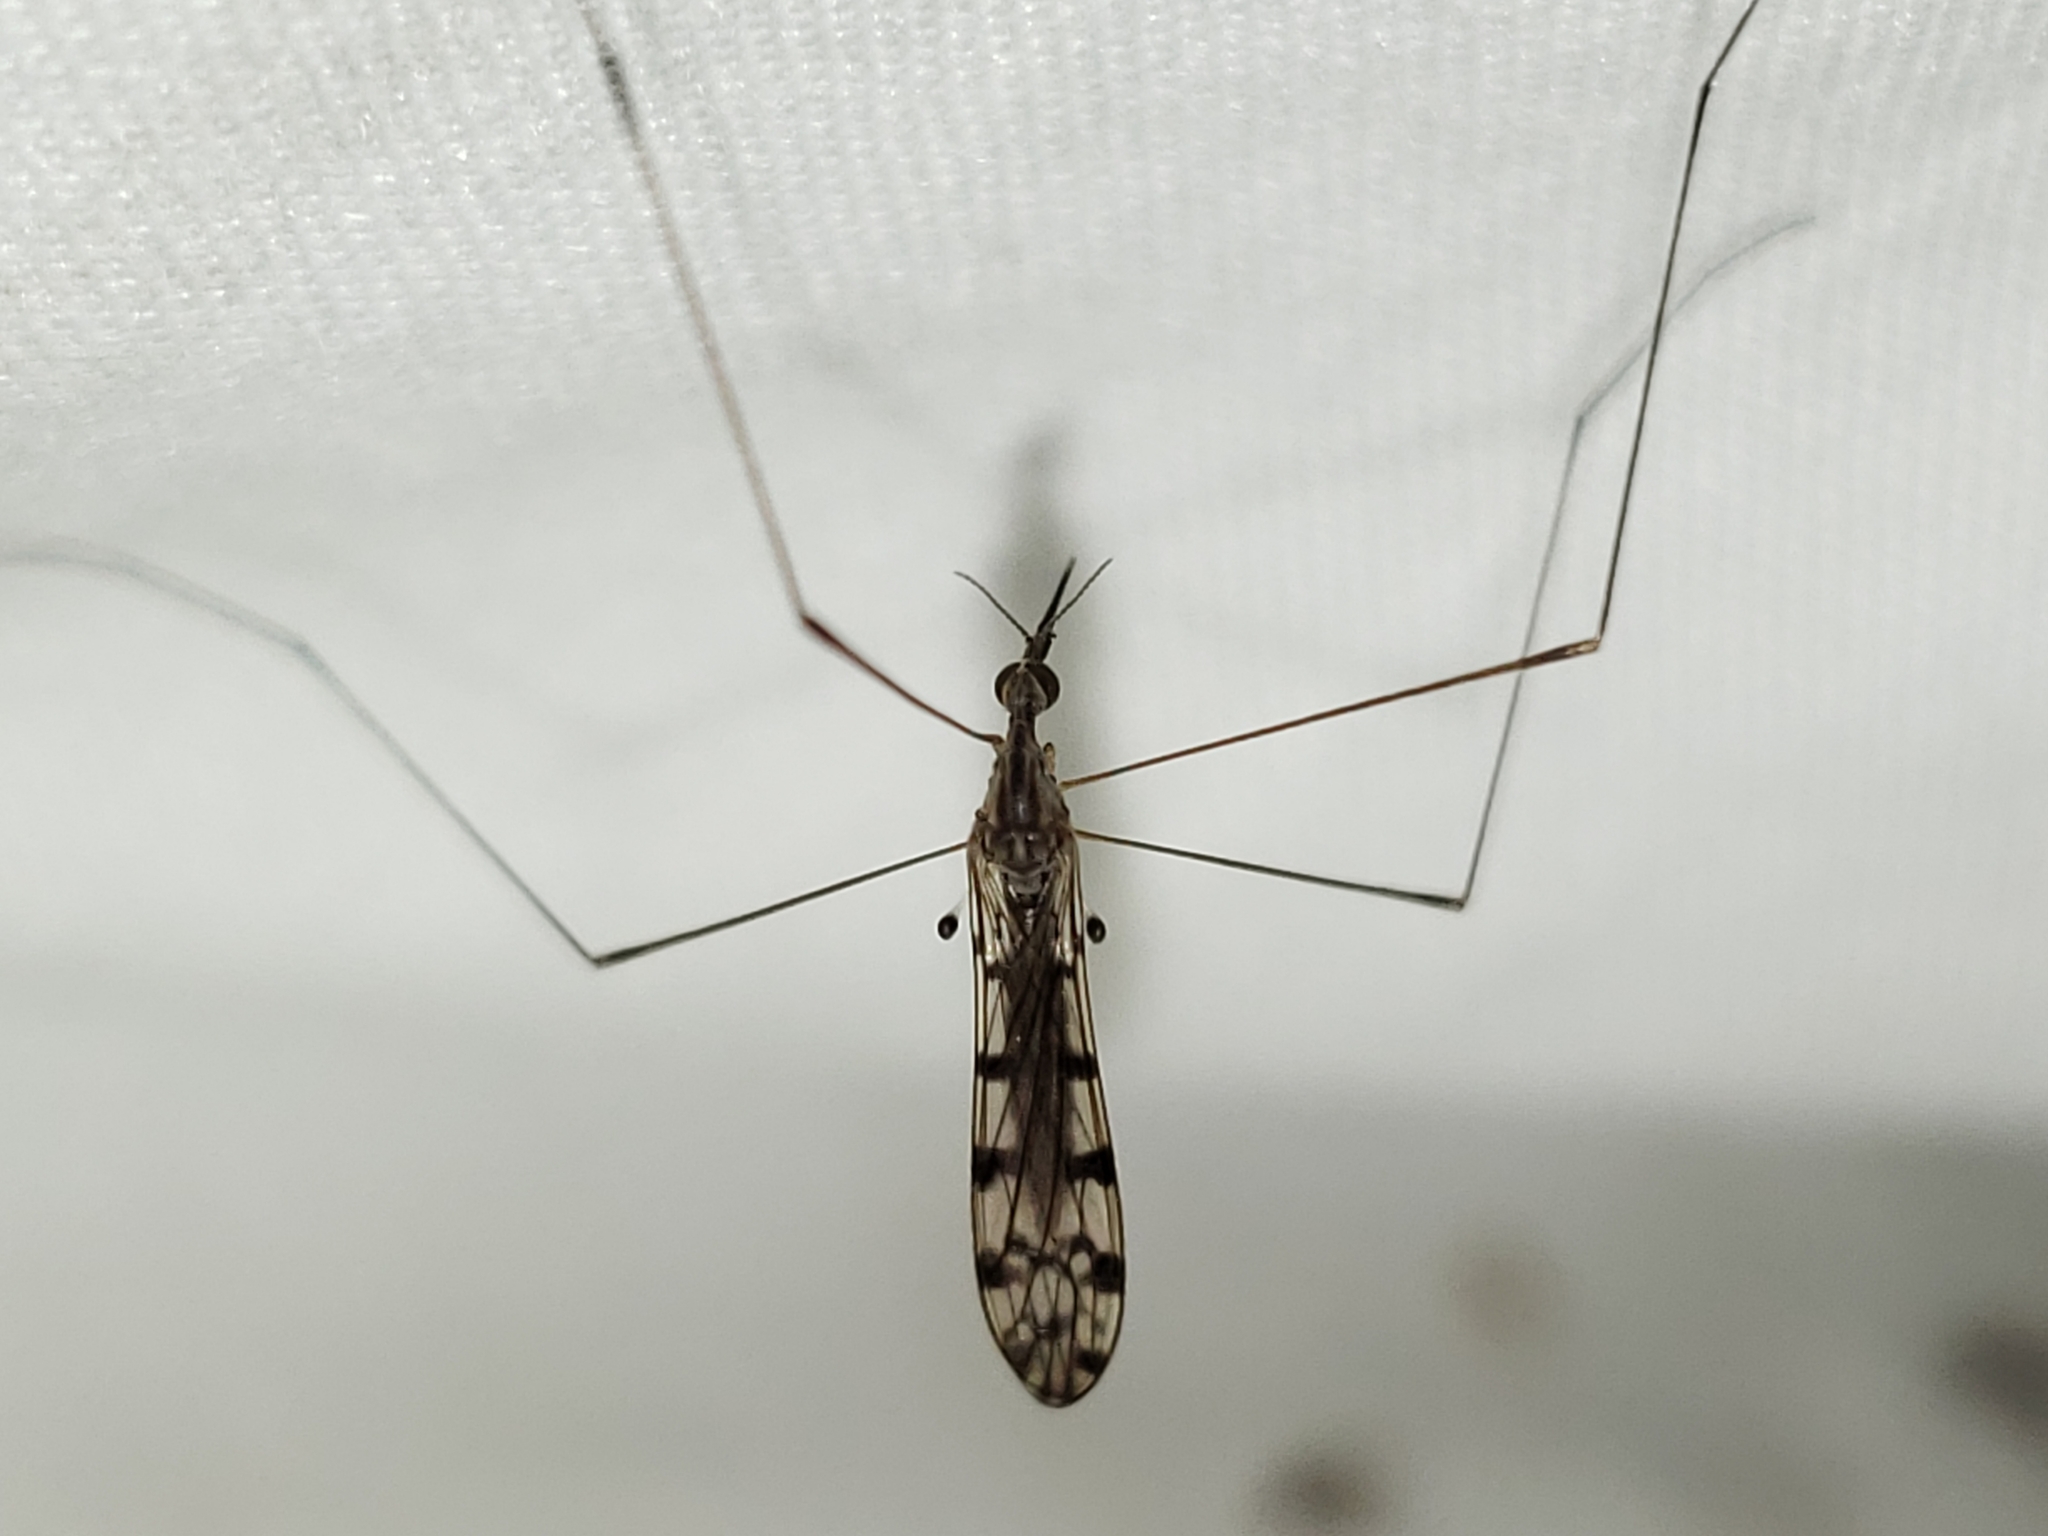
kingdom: Animalia
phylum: Arthropoda
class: Insecta
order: Diptera
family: Limoniidae
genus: Geranomyia
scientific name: Geranomyia rostrata
